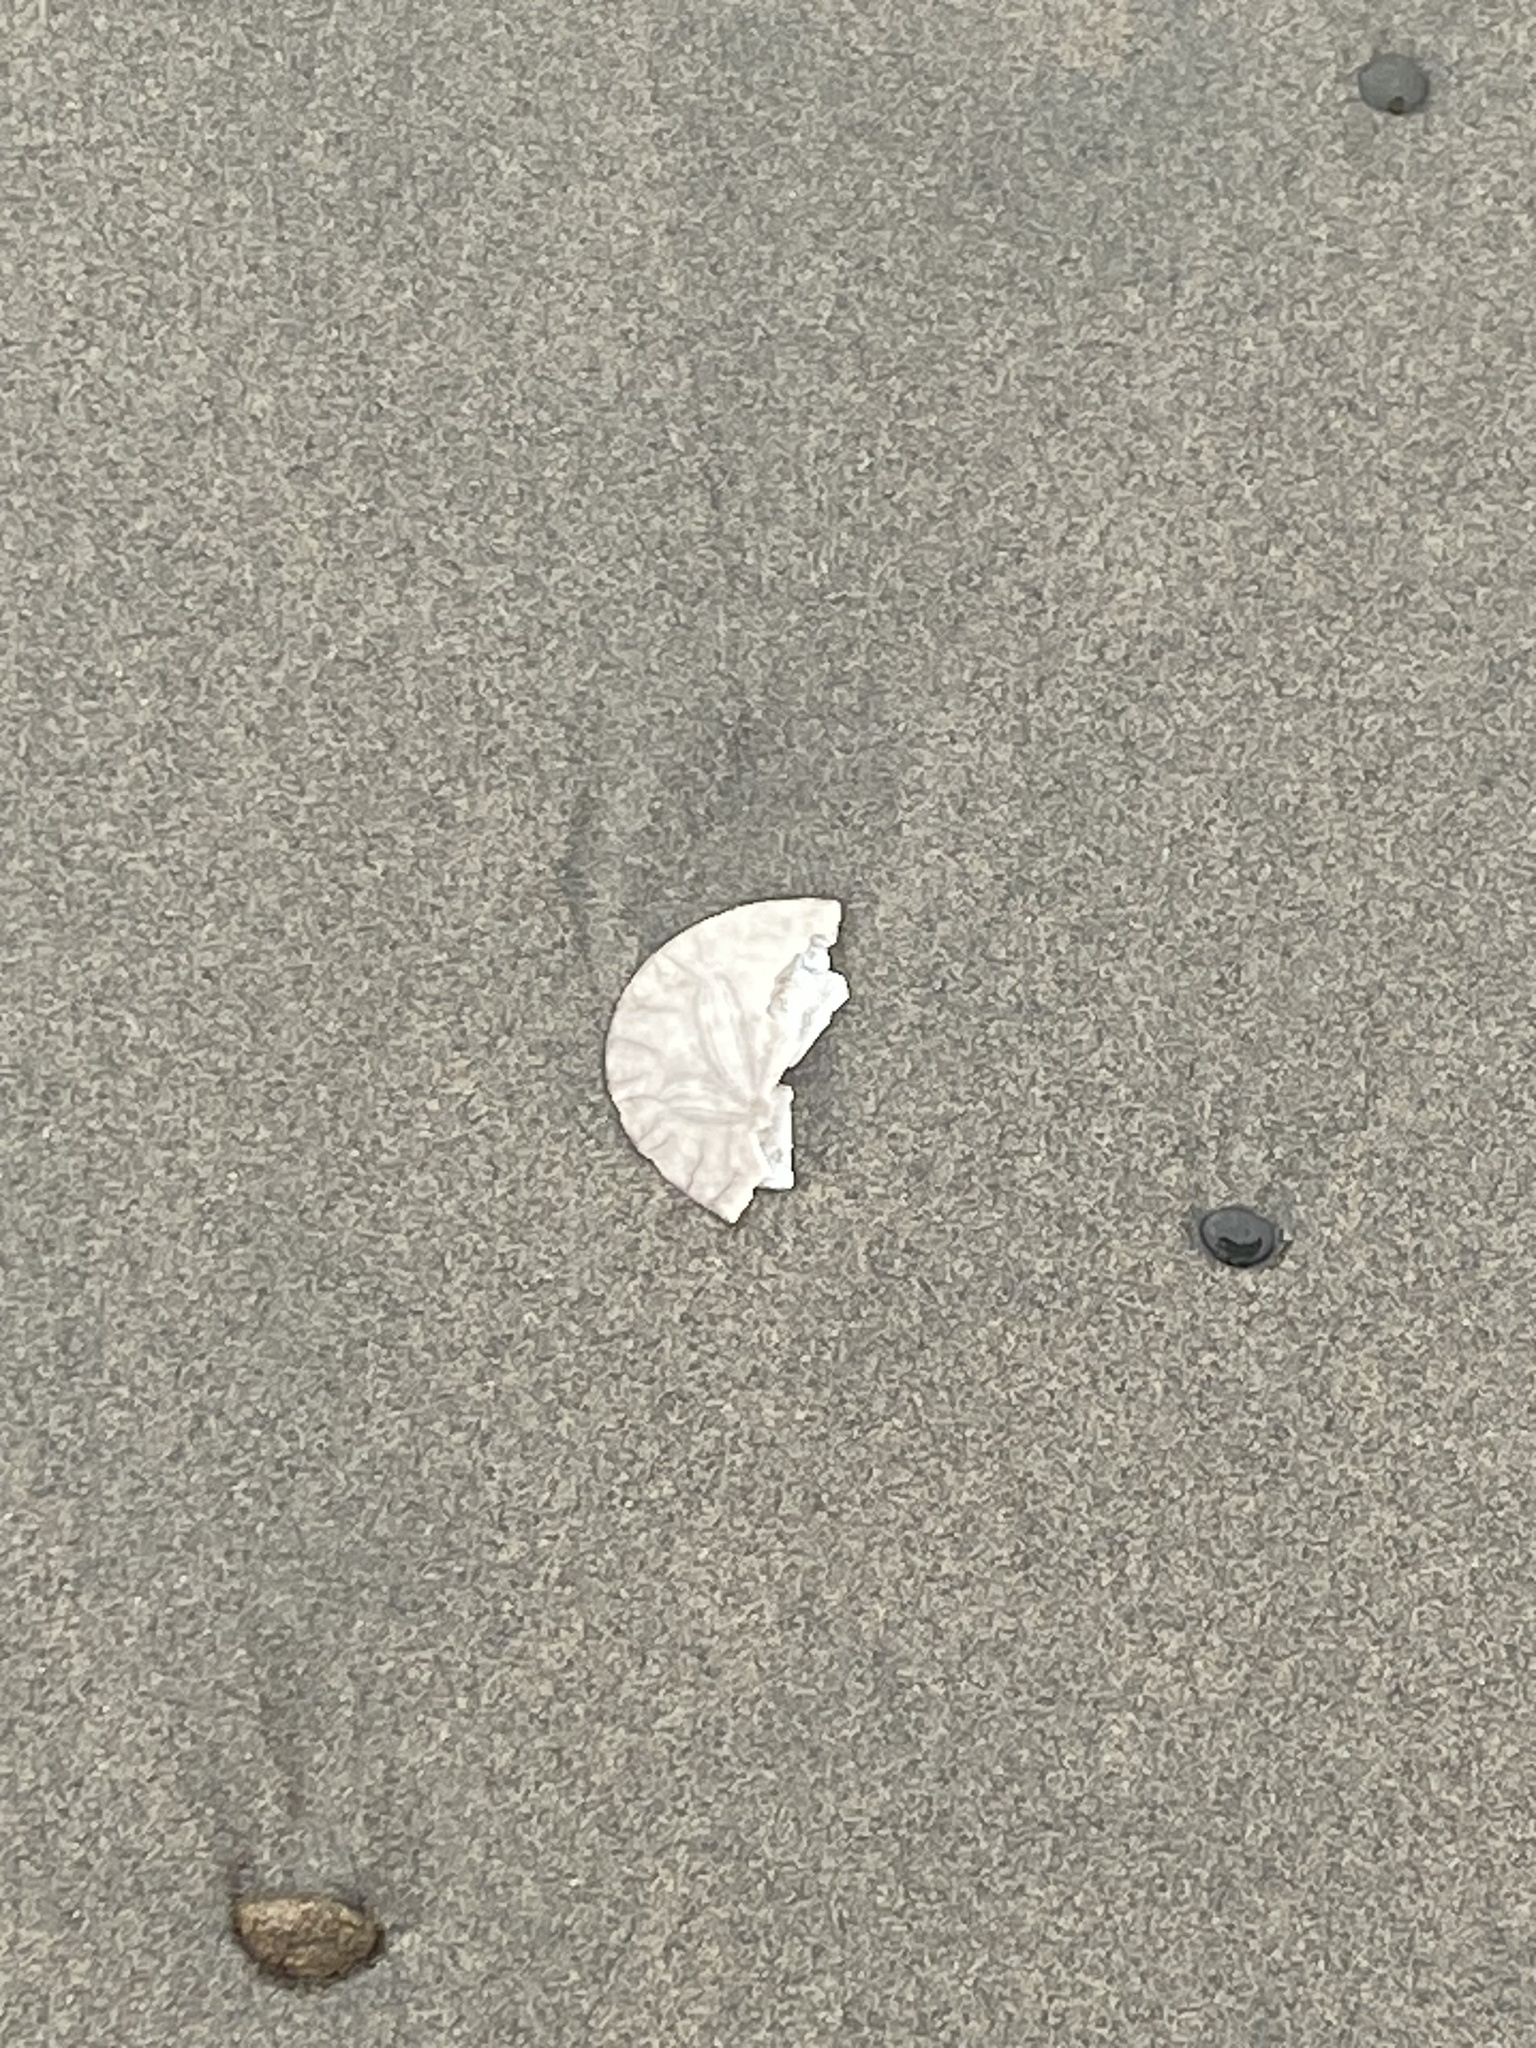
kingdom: Animalia
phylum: Echinodermata
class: Echinoidea
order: Echinolampadacea
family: Dendrasteridae
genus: Dendraster
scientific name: Dendraster excentricus
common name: Eccentric sand dollar sea urchin
